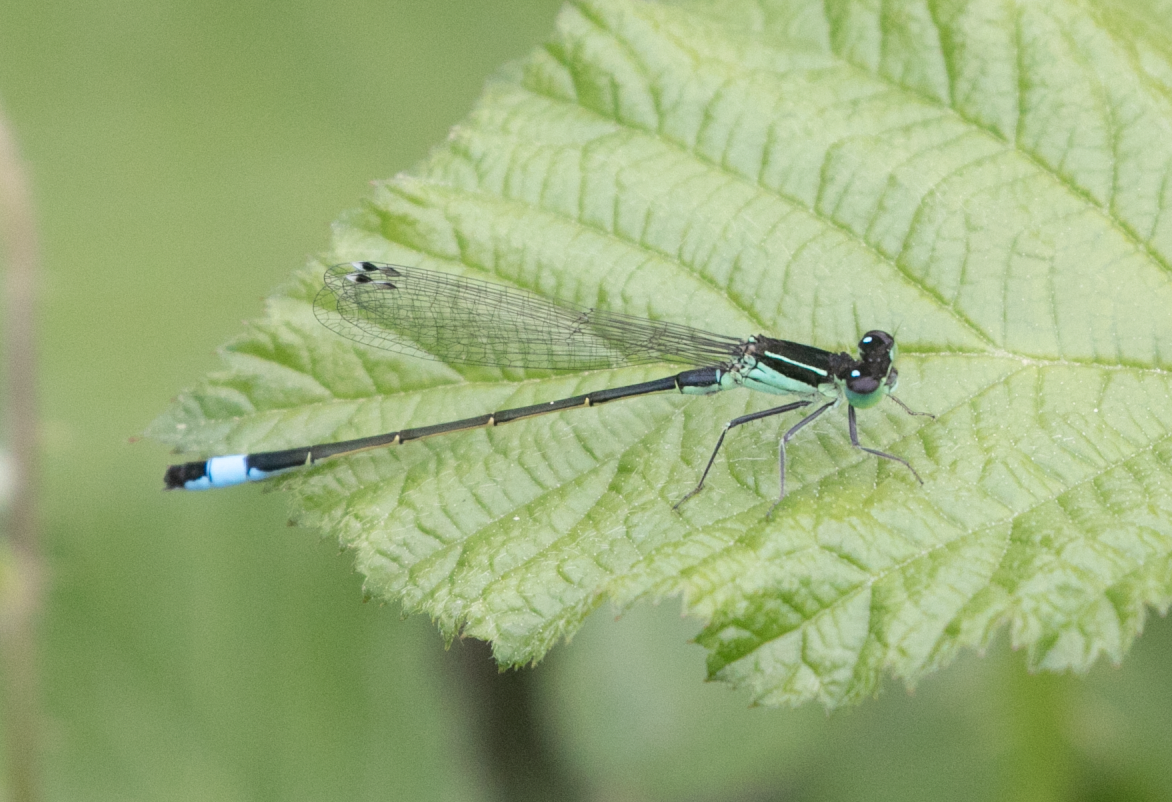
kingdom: Animalia
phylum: Arthropoda
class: Insecta
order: Odonata
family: Coenagrionidae
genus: Ischnura
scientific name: Ischnura elegans
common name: Blue-tailed damselfly
